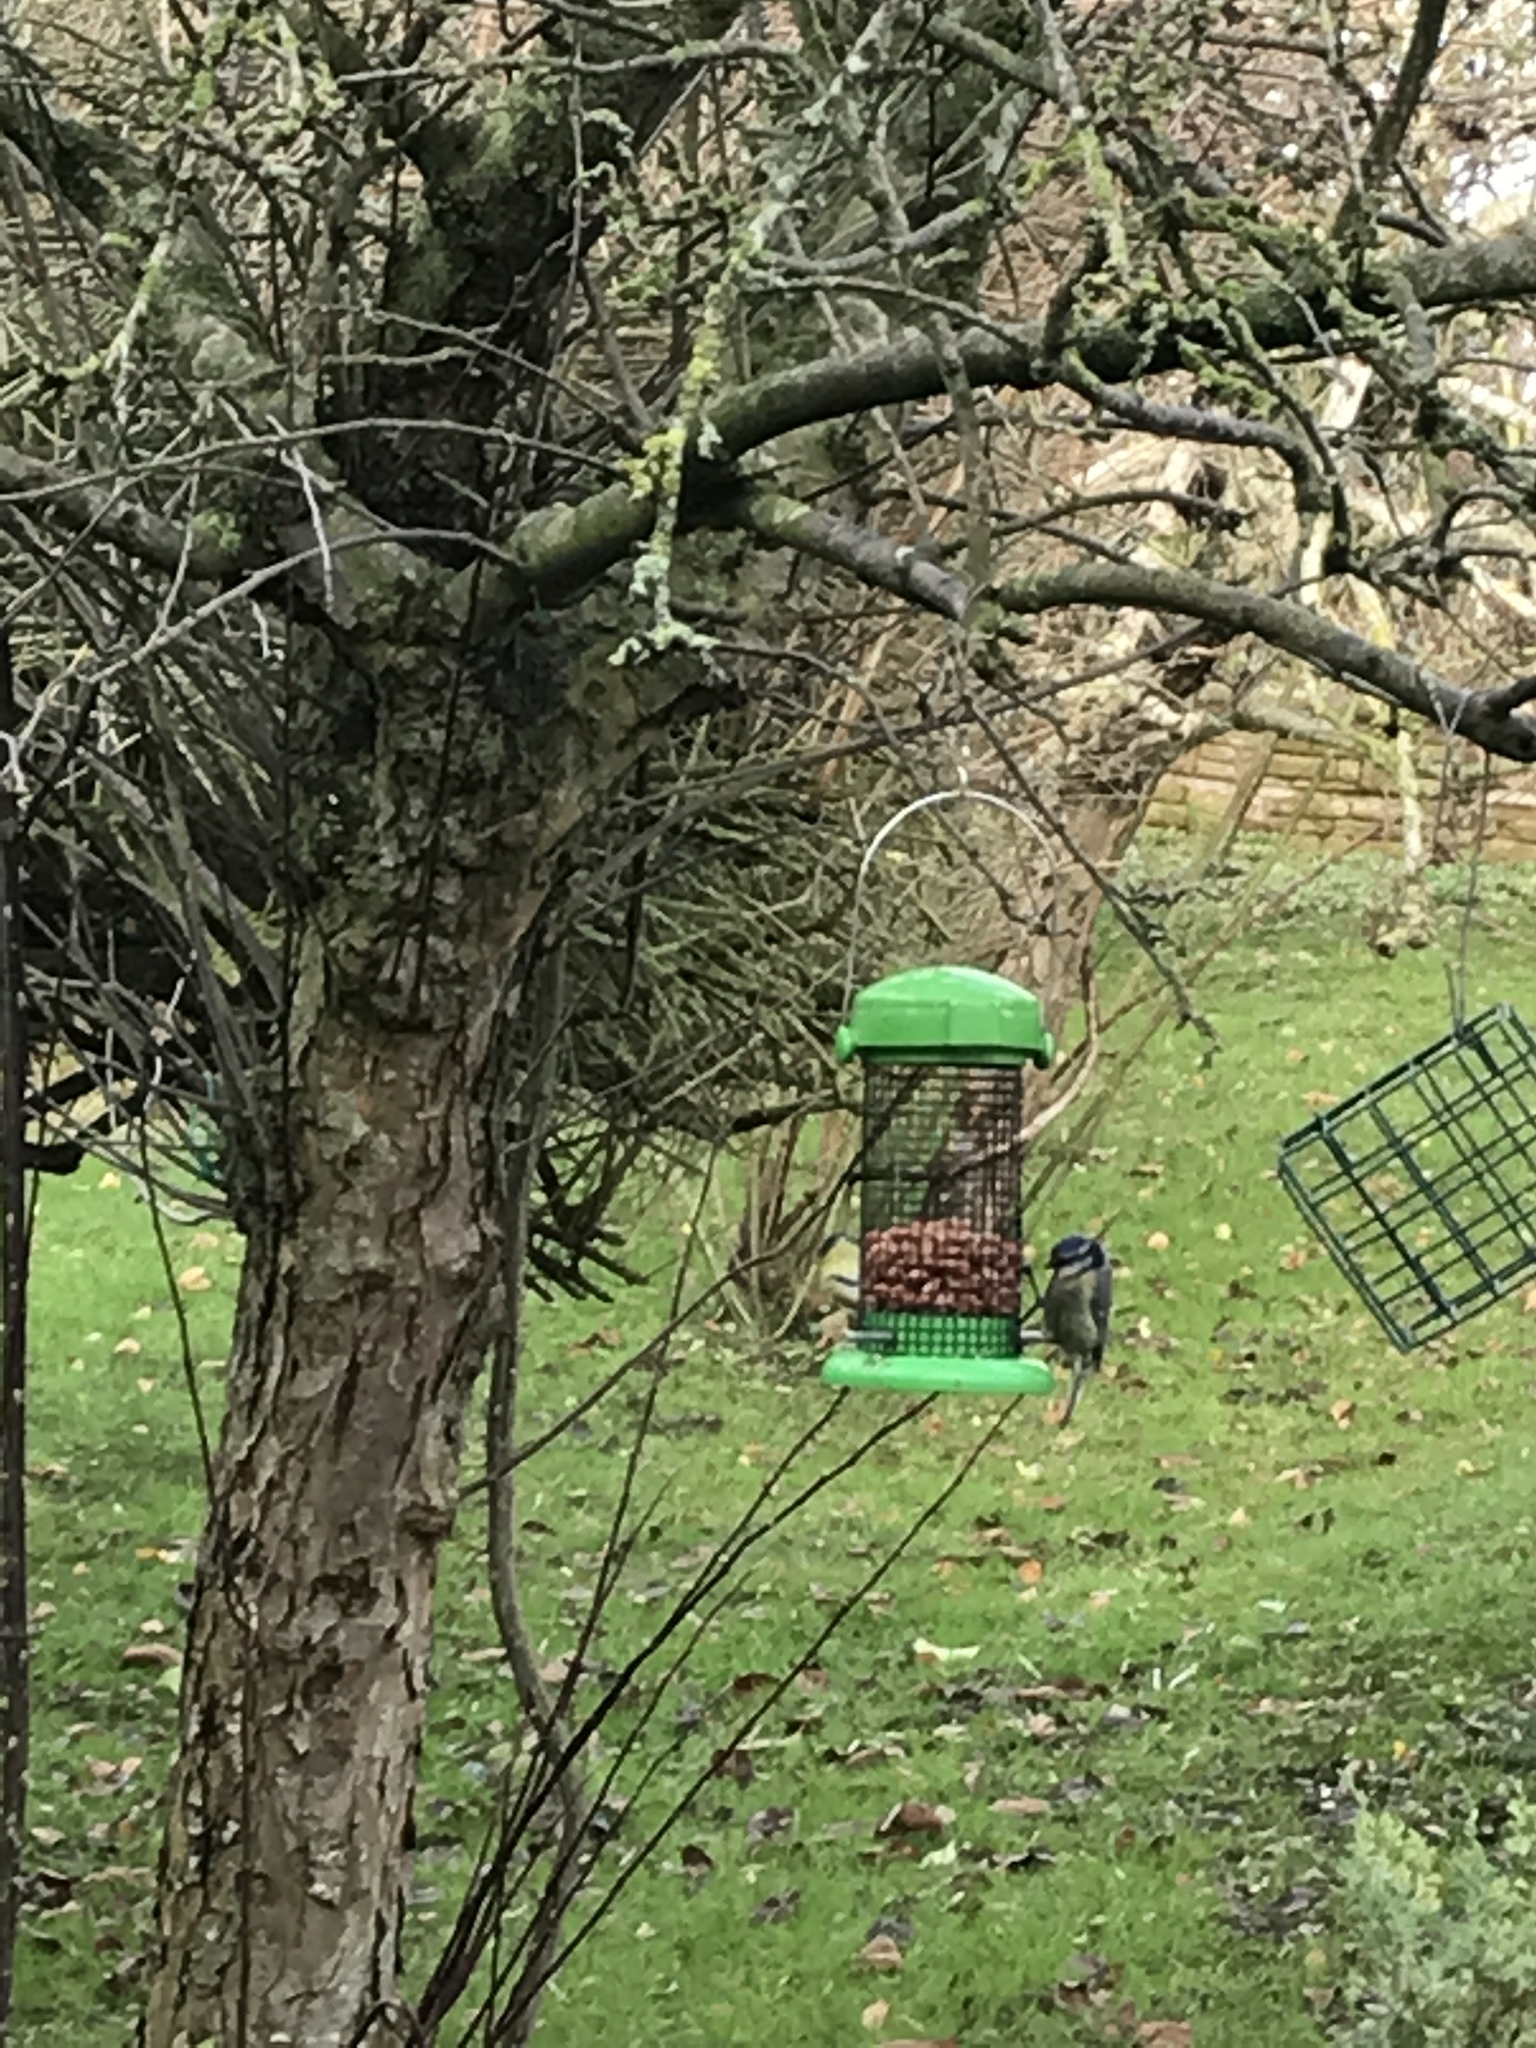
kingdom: Animalia
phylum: Chordata
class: Aves
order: Passeriformes
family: Paridae
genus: Cyanistes
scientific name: Cyanistes caeruleus
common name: Eurasian blue tit
